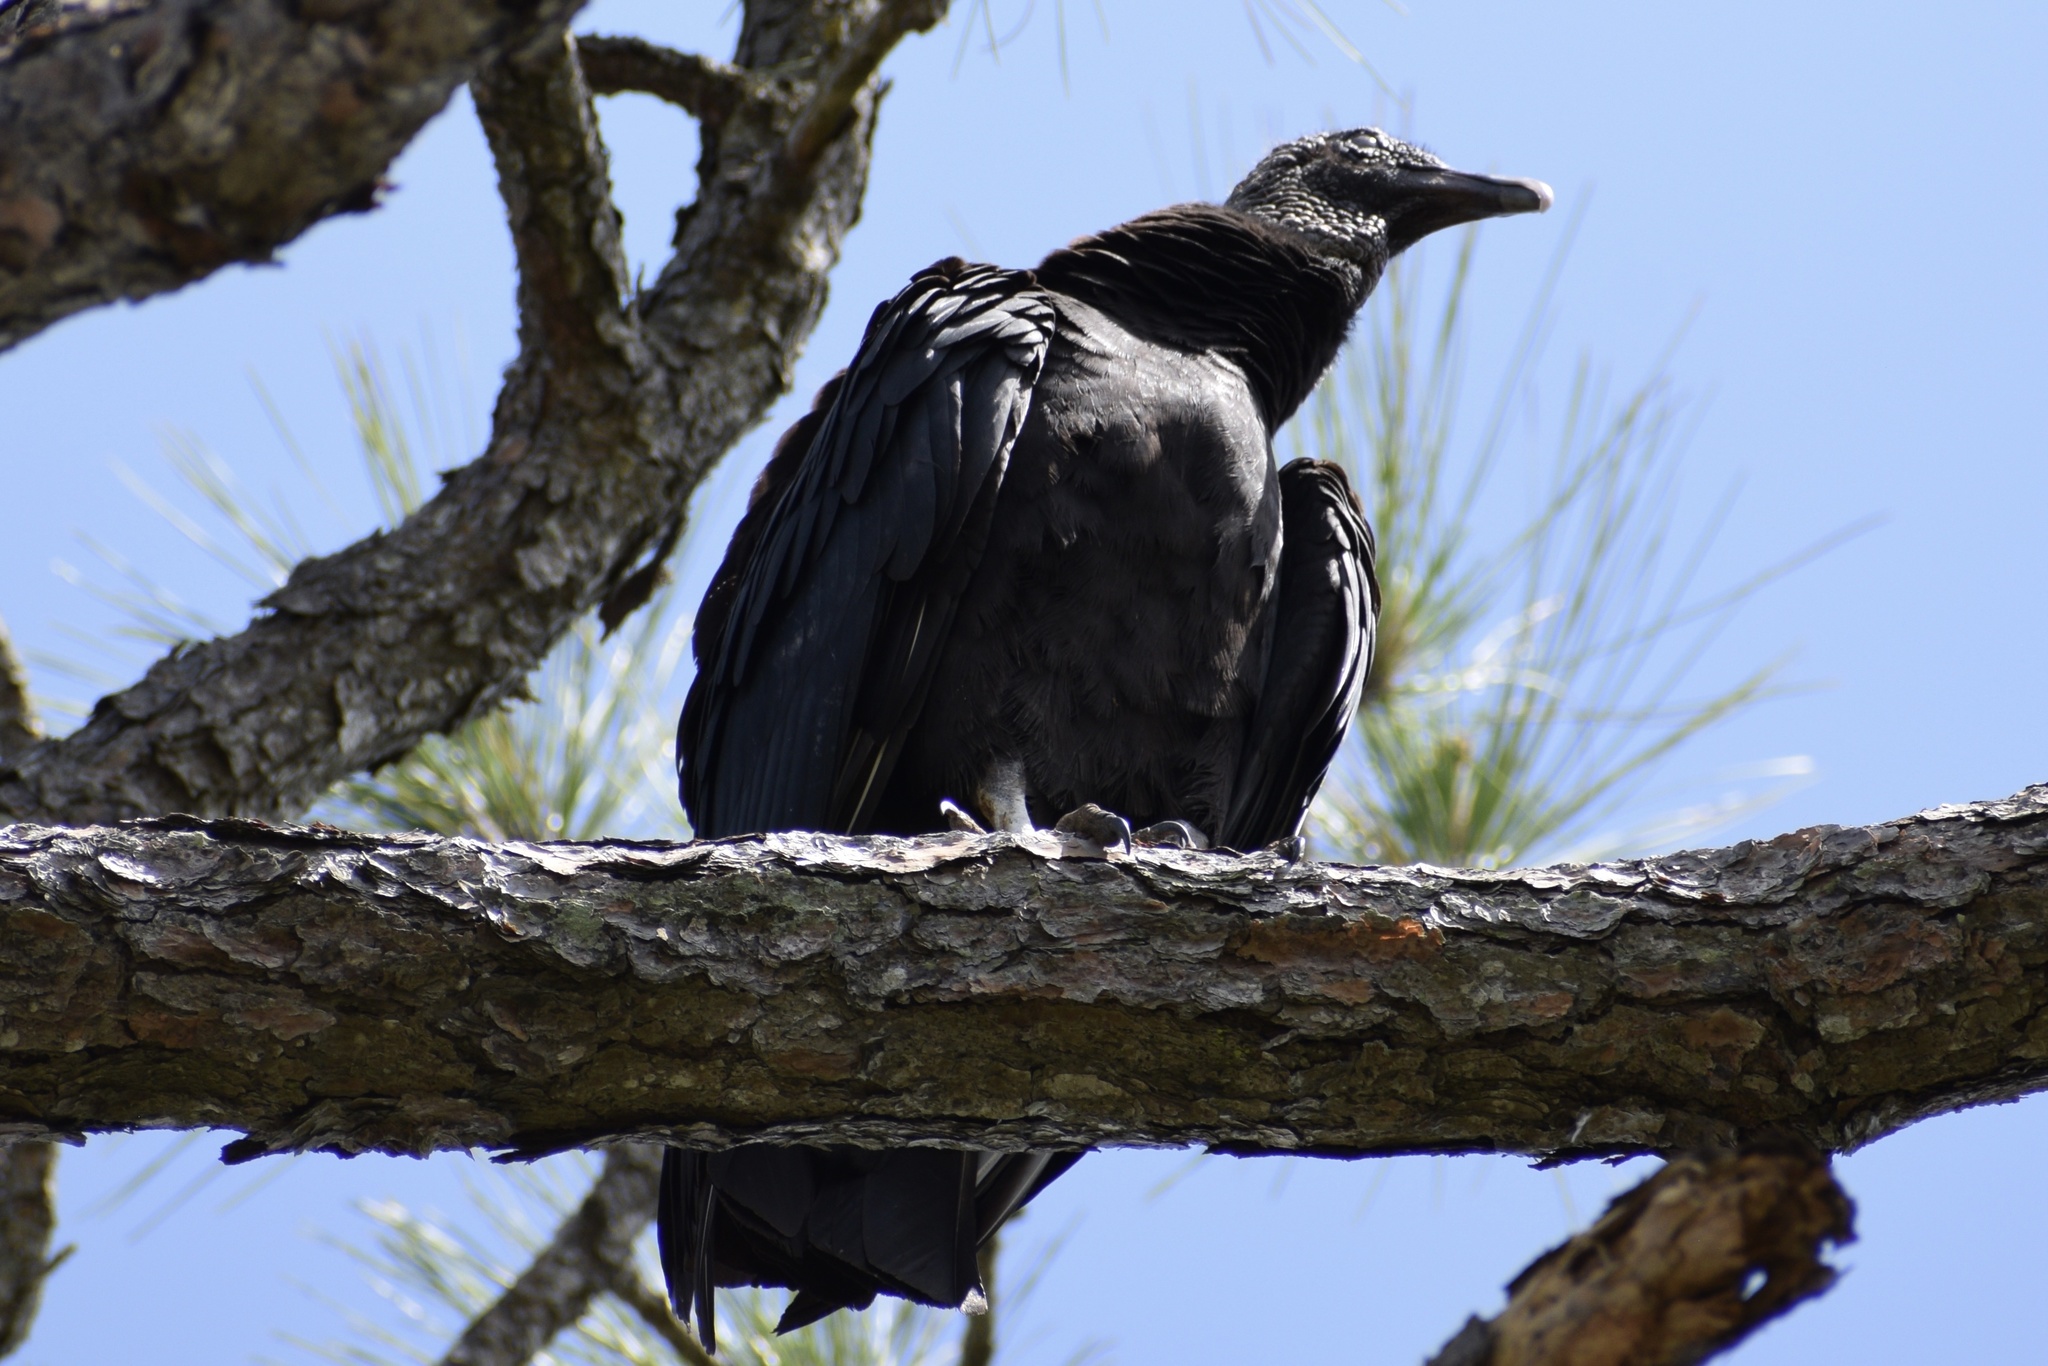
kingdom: Animalia
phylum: Chordata
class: Aves
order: Accipitriformes
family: Cathartidae
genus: Coragyps
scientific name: Coragyps atratus
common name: Black vulture
